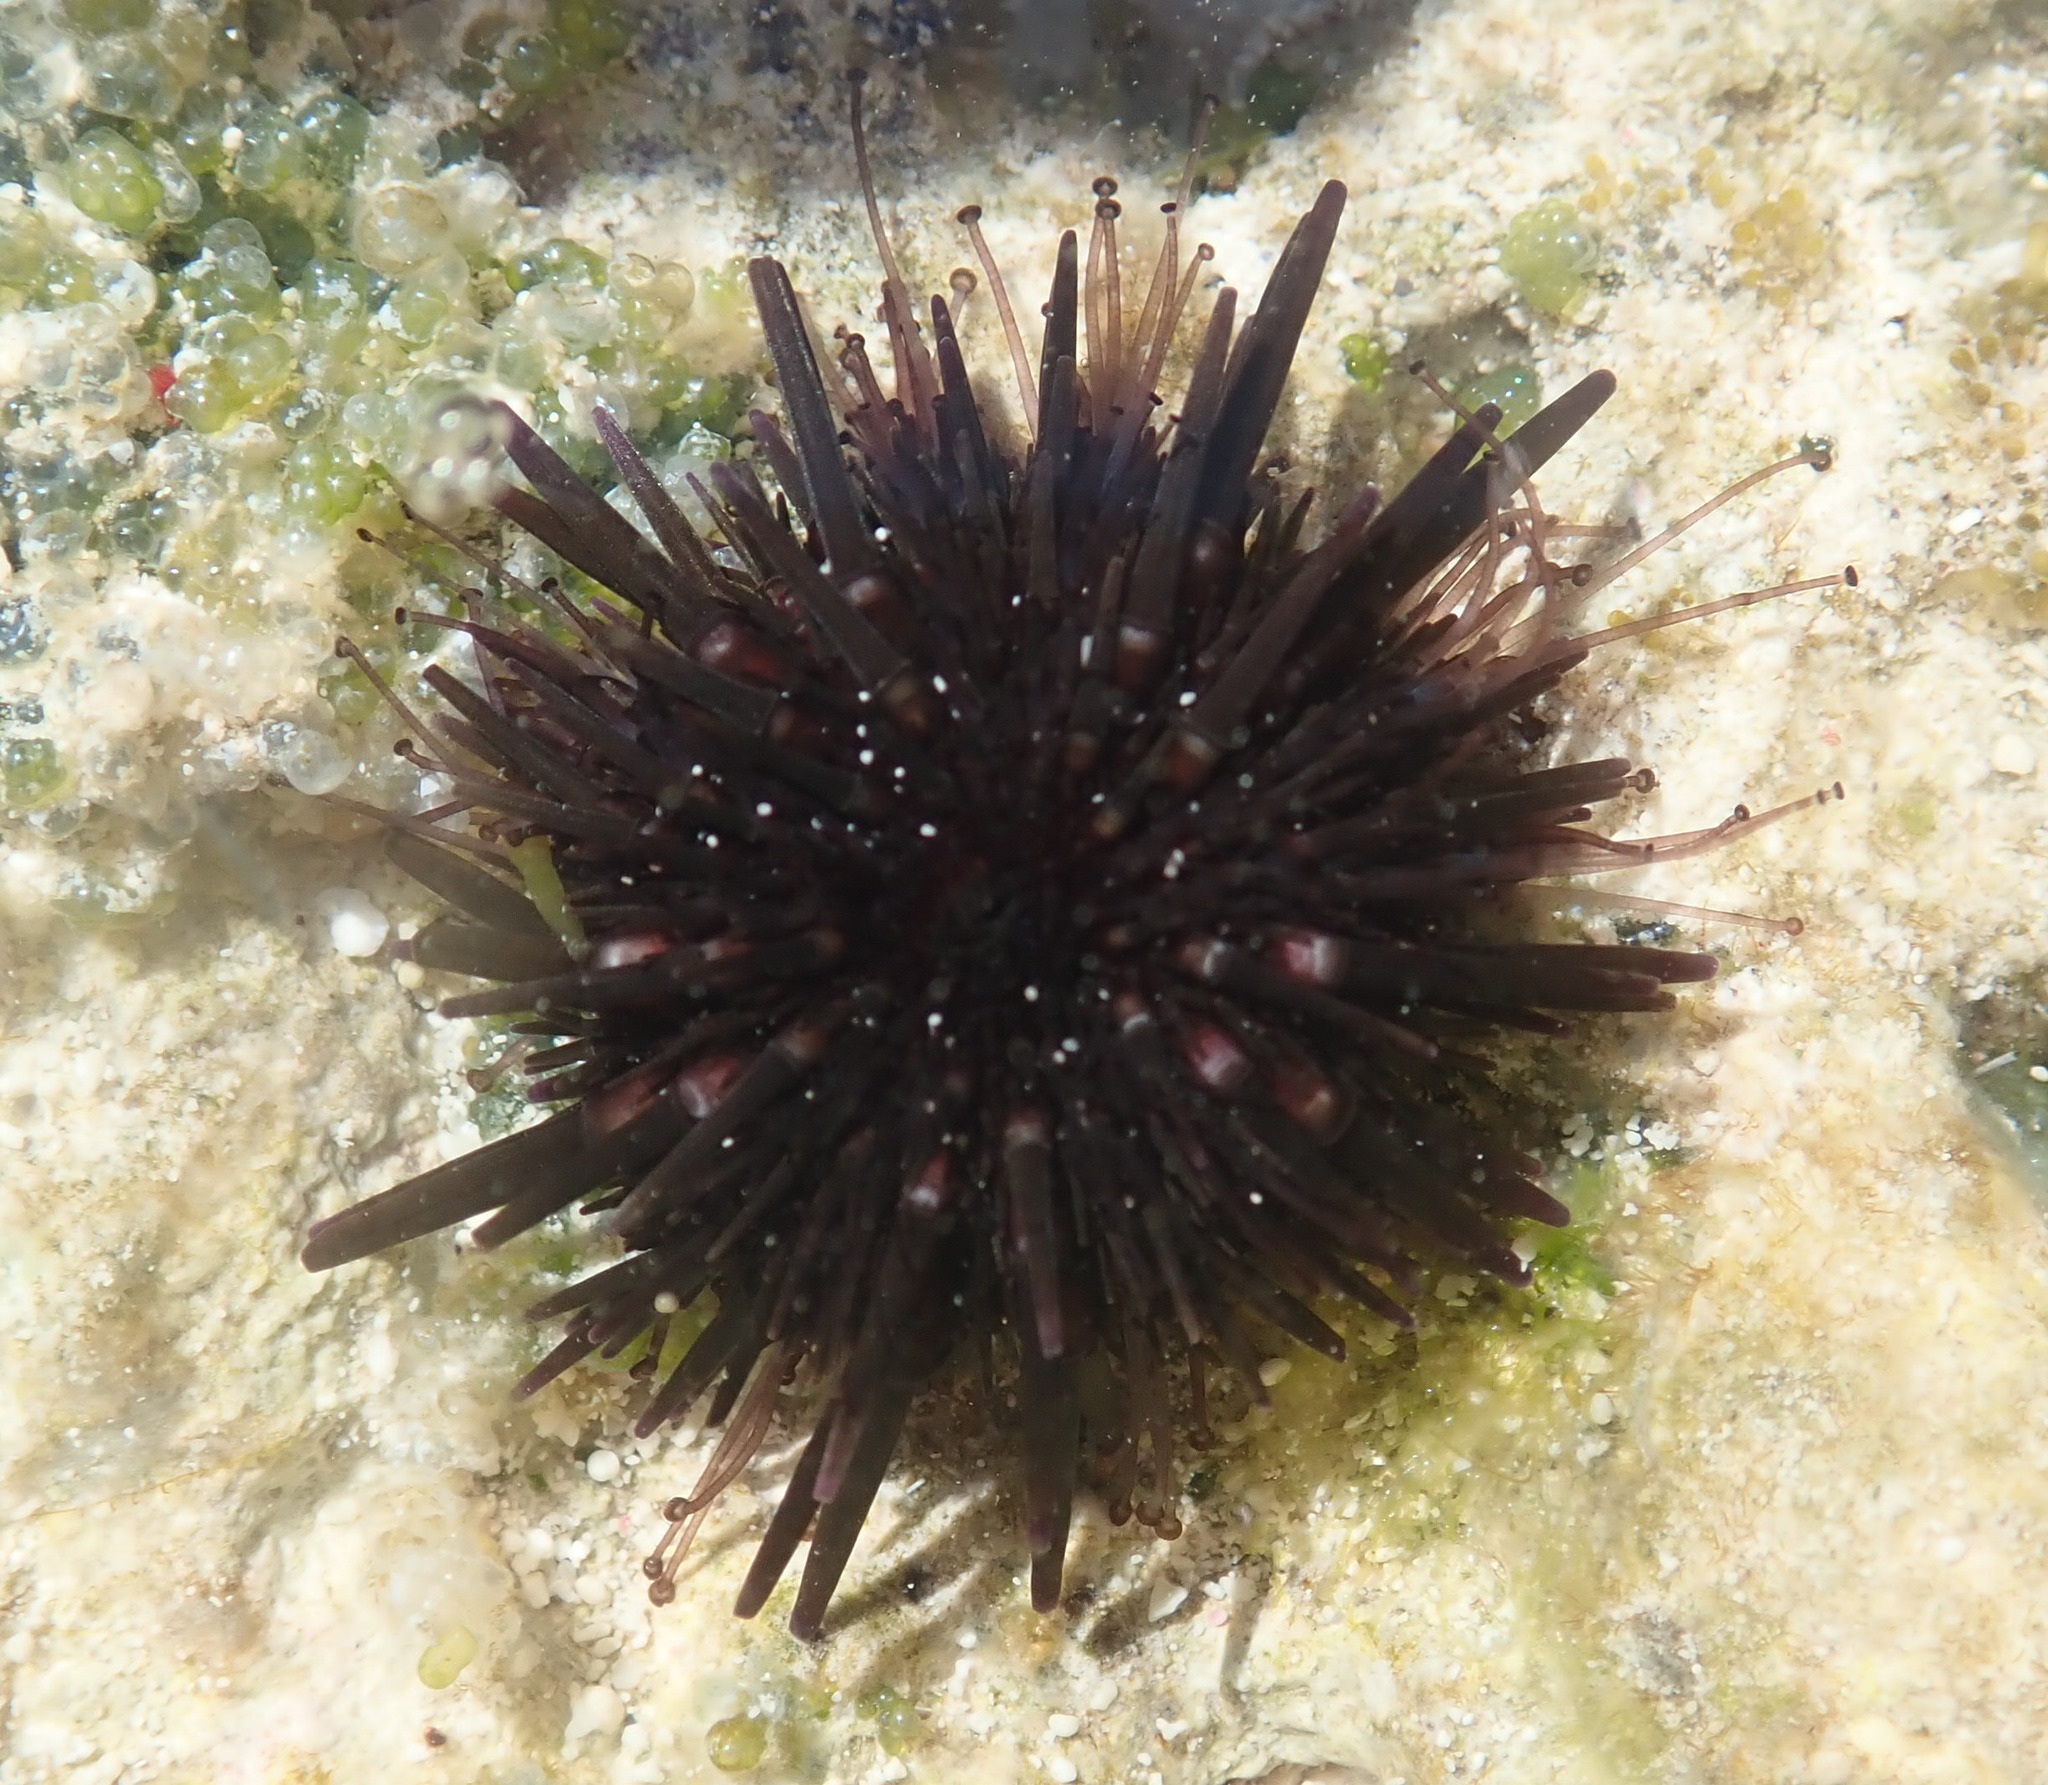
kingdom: Animalia
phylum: Echinodermata
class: Echinoidea
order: Camarodonta
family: Echinometridae
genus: Echinometra
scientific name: Echinometra lucunter
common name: Rock urchin
